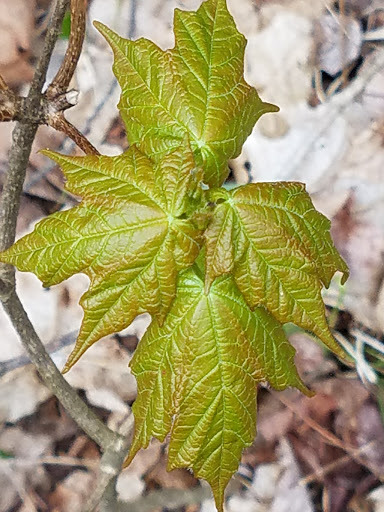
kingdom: Plantae
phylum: Tracheophyta
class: Magnoliopsida
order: Sapindales
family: Sapindaceae
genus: Acer
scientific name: Acer saccharum
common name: Sugar maple
